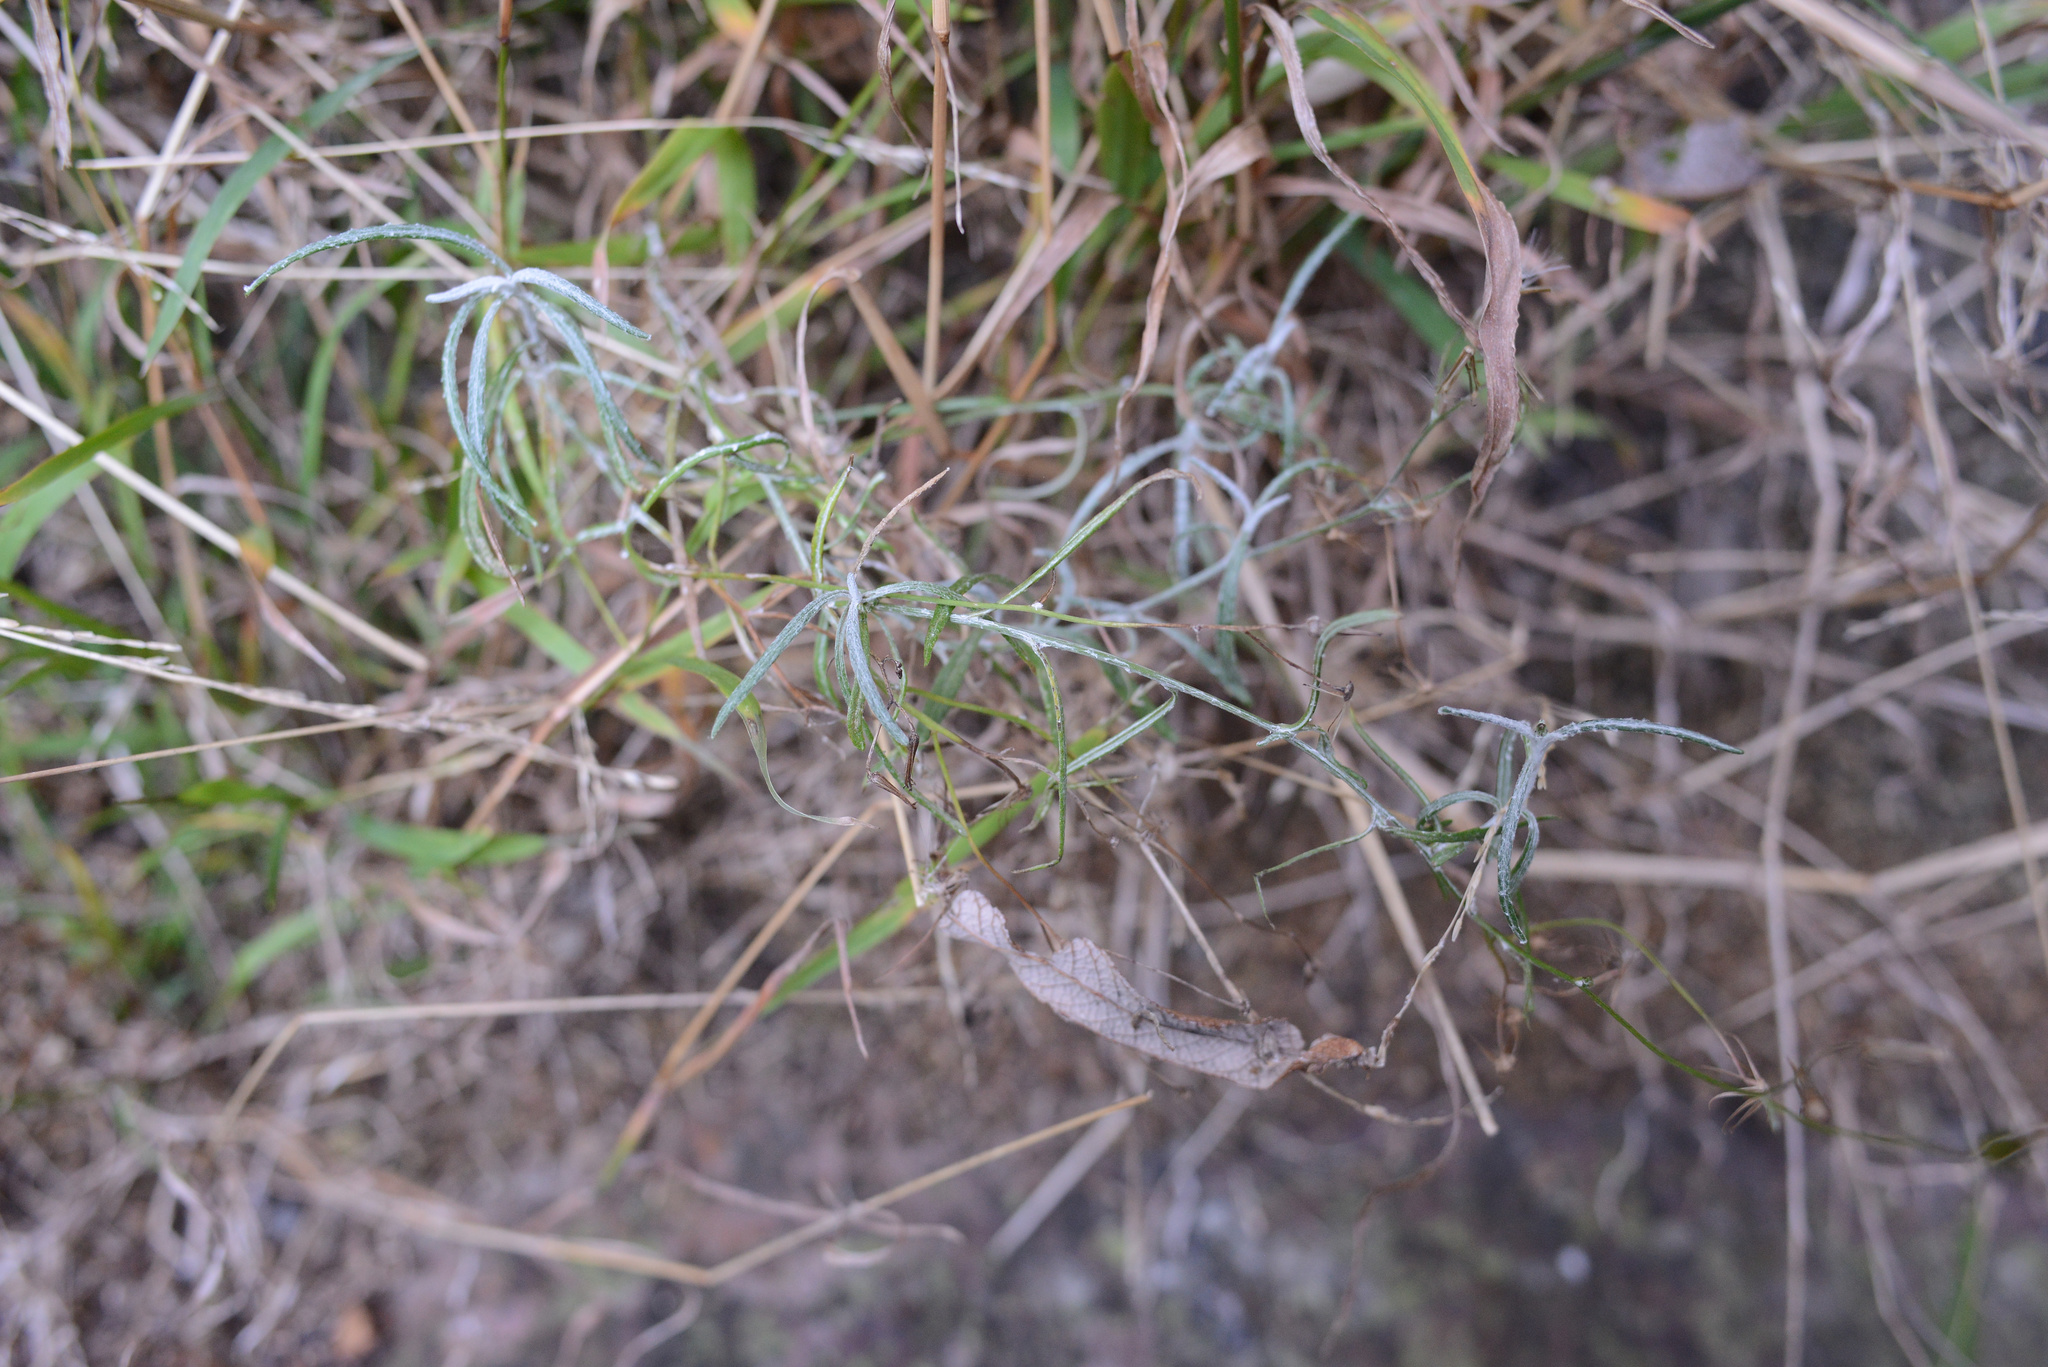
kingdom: Plantae
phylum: Tracheophyta
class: Magnoliopsida
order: Asterales
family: Asteraceae
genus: Senecio
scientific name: Senecio quadridentatus
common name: Cotton fireweed
